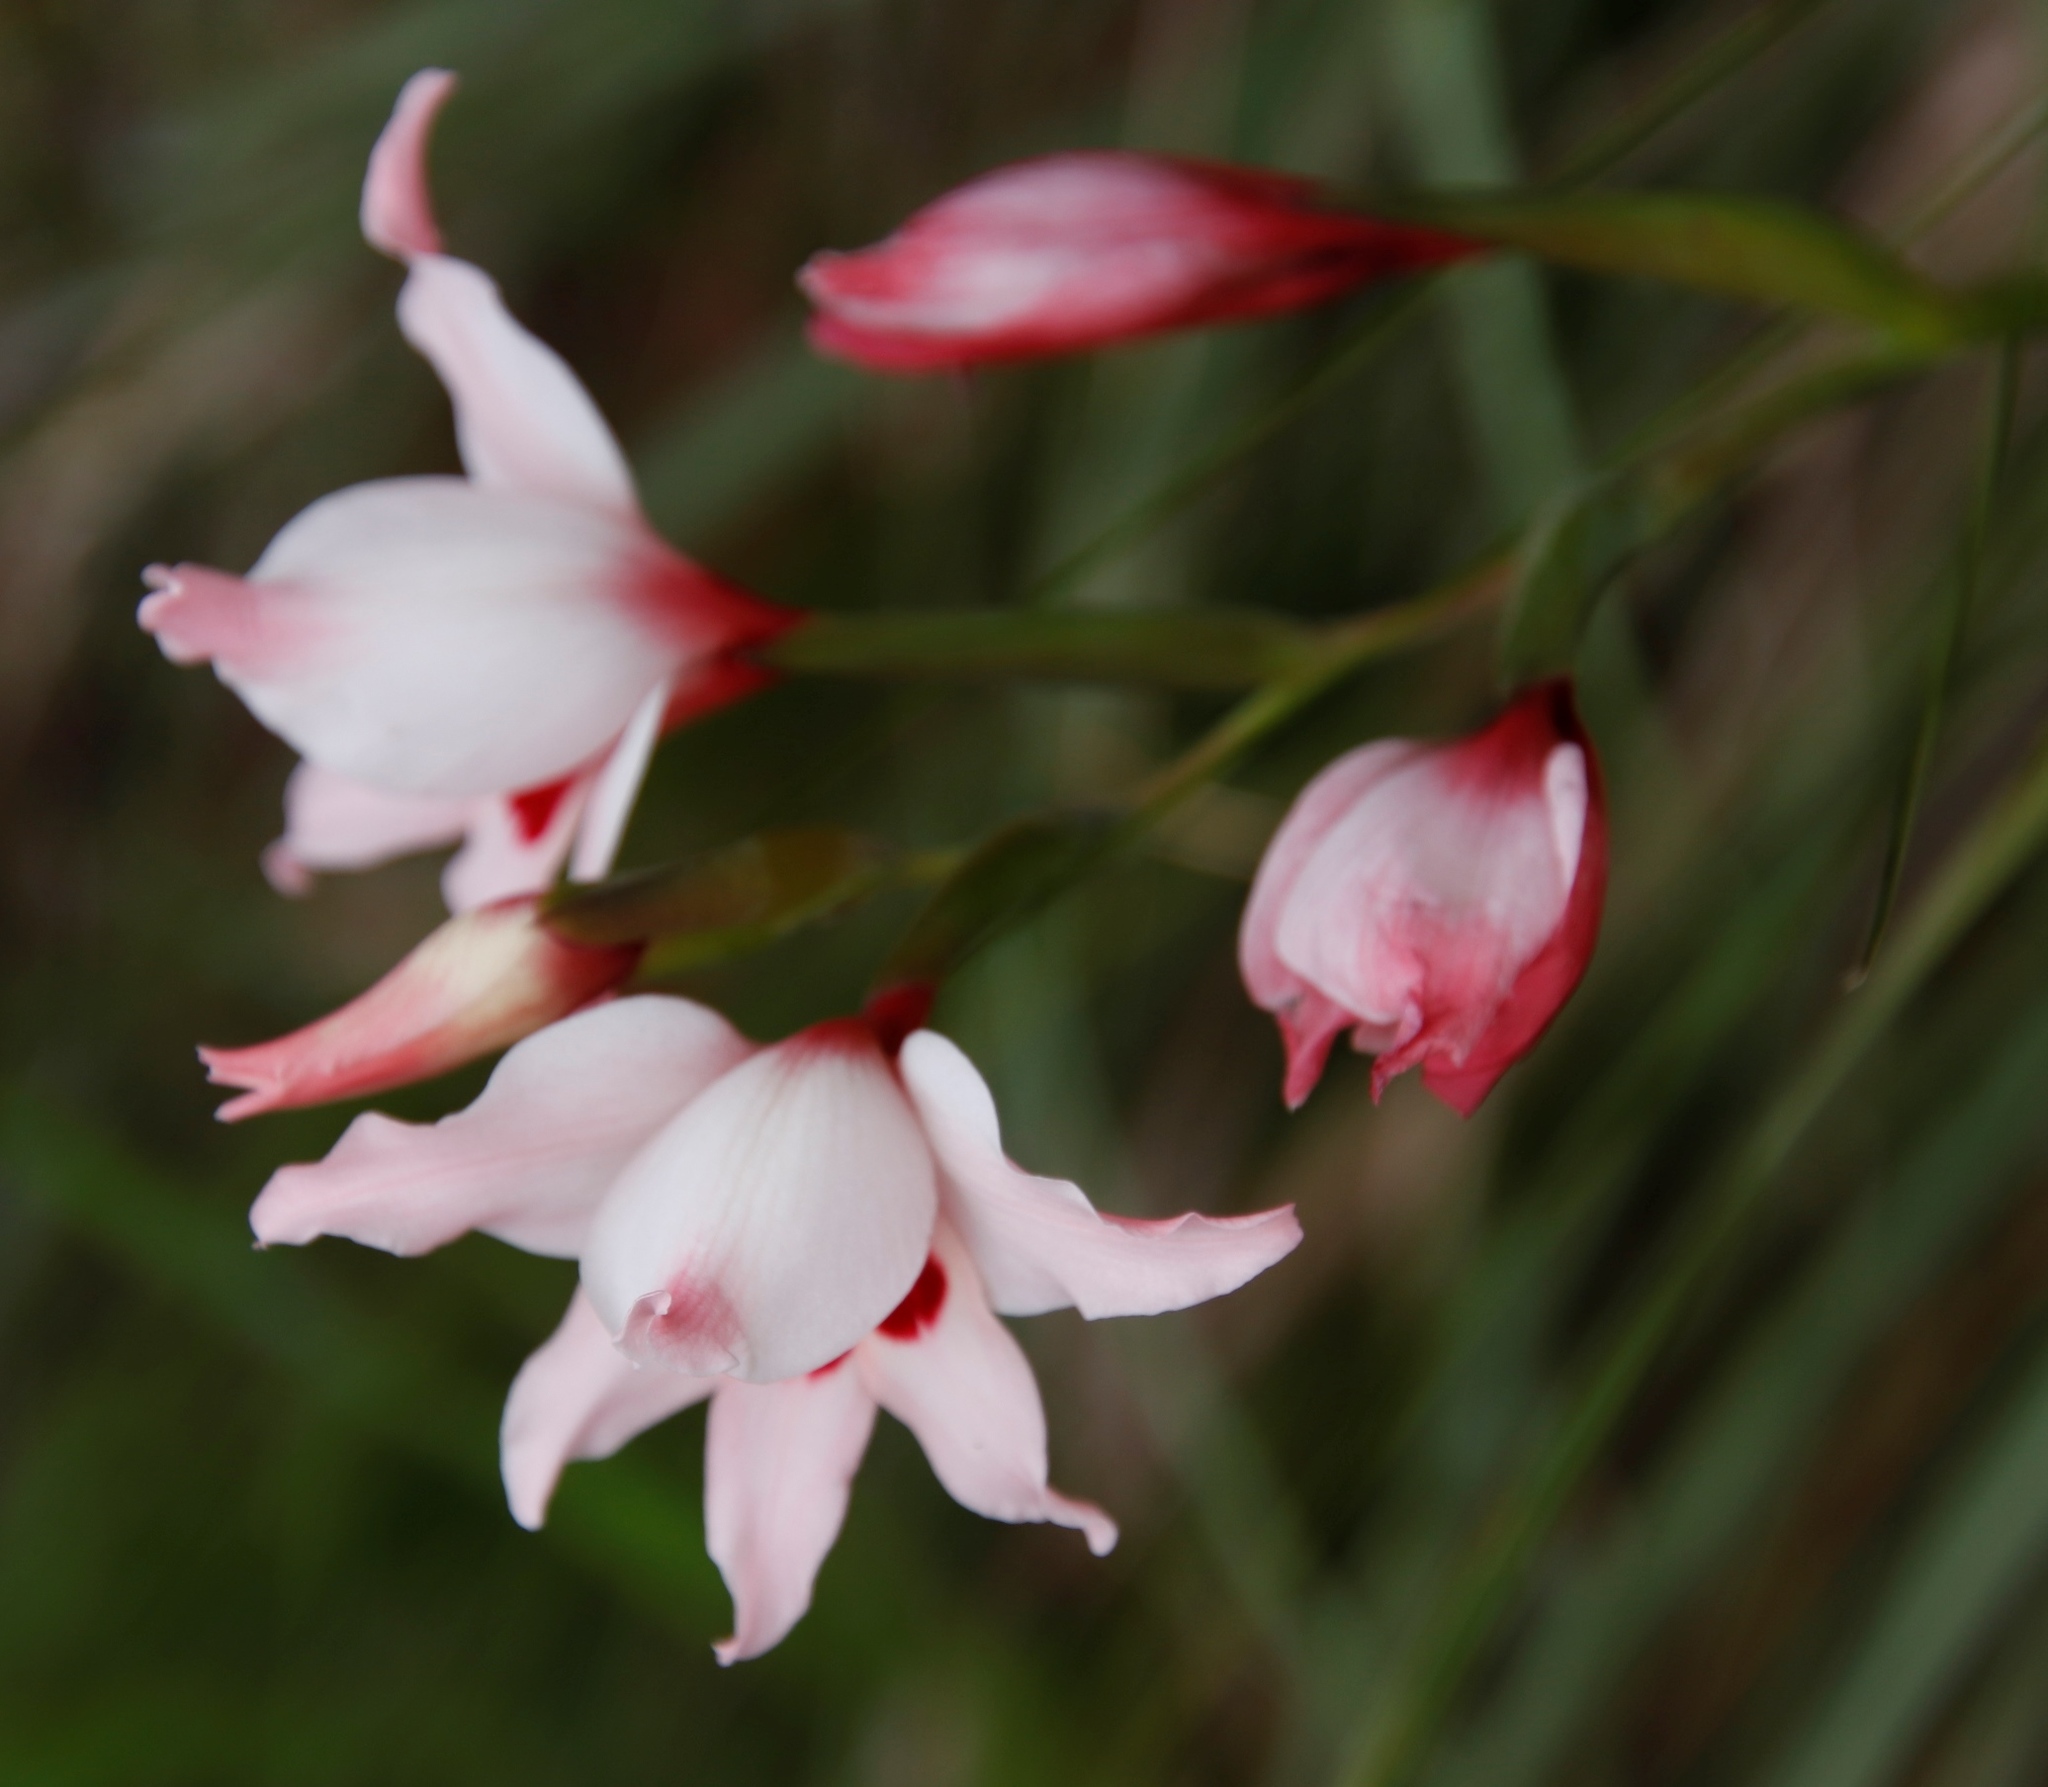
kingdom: Plantae
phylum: Tracheophyta
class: Liliopsida
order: Asparagales
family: Iridaceae
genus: Gladiolus
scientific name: Gladiolus carneus
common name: Painted-lady
